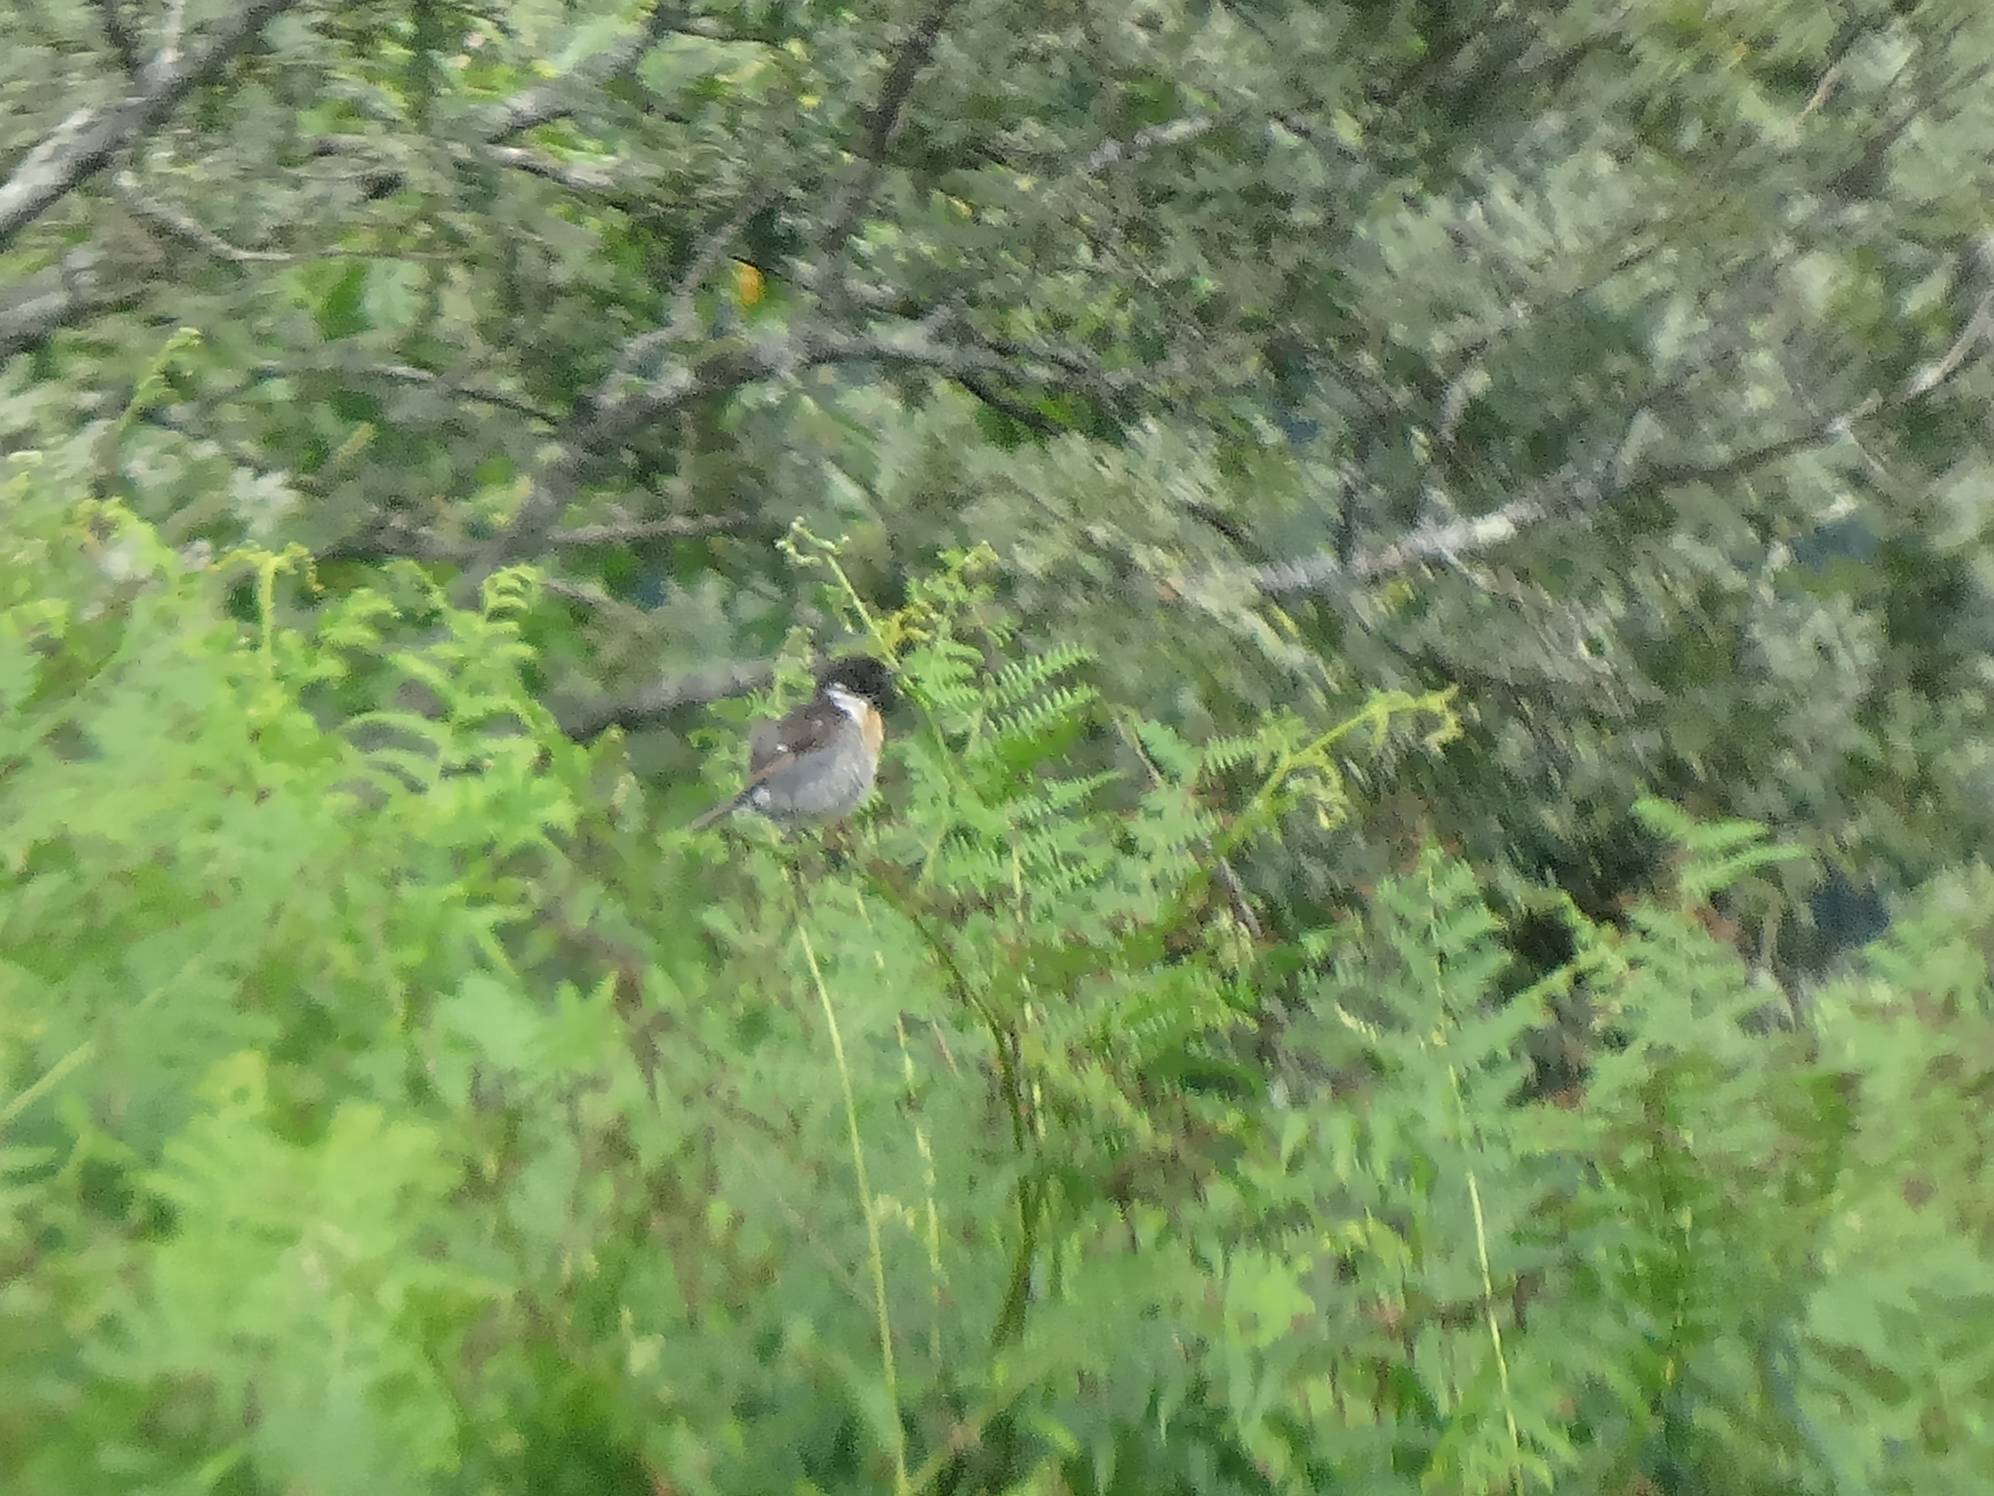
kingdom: Animalia
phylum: Chordata
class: Aves
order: Passeriformes
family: Muscicapidae
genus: Saxicola
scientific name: Saxicola rubicola
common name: European stonechat
